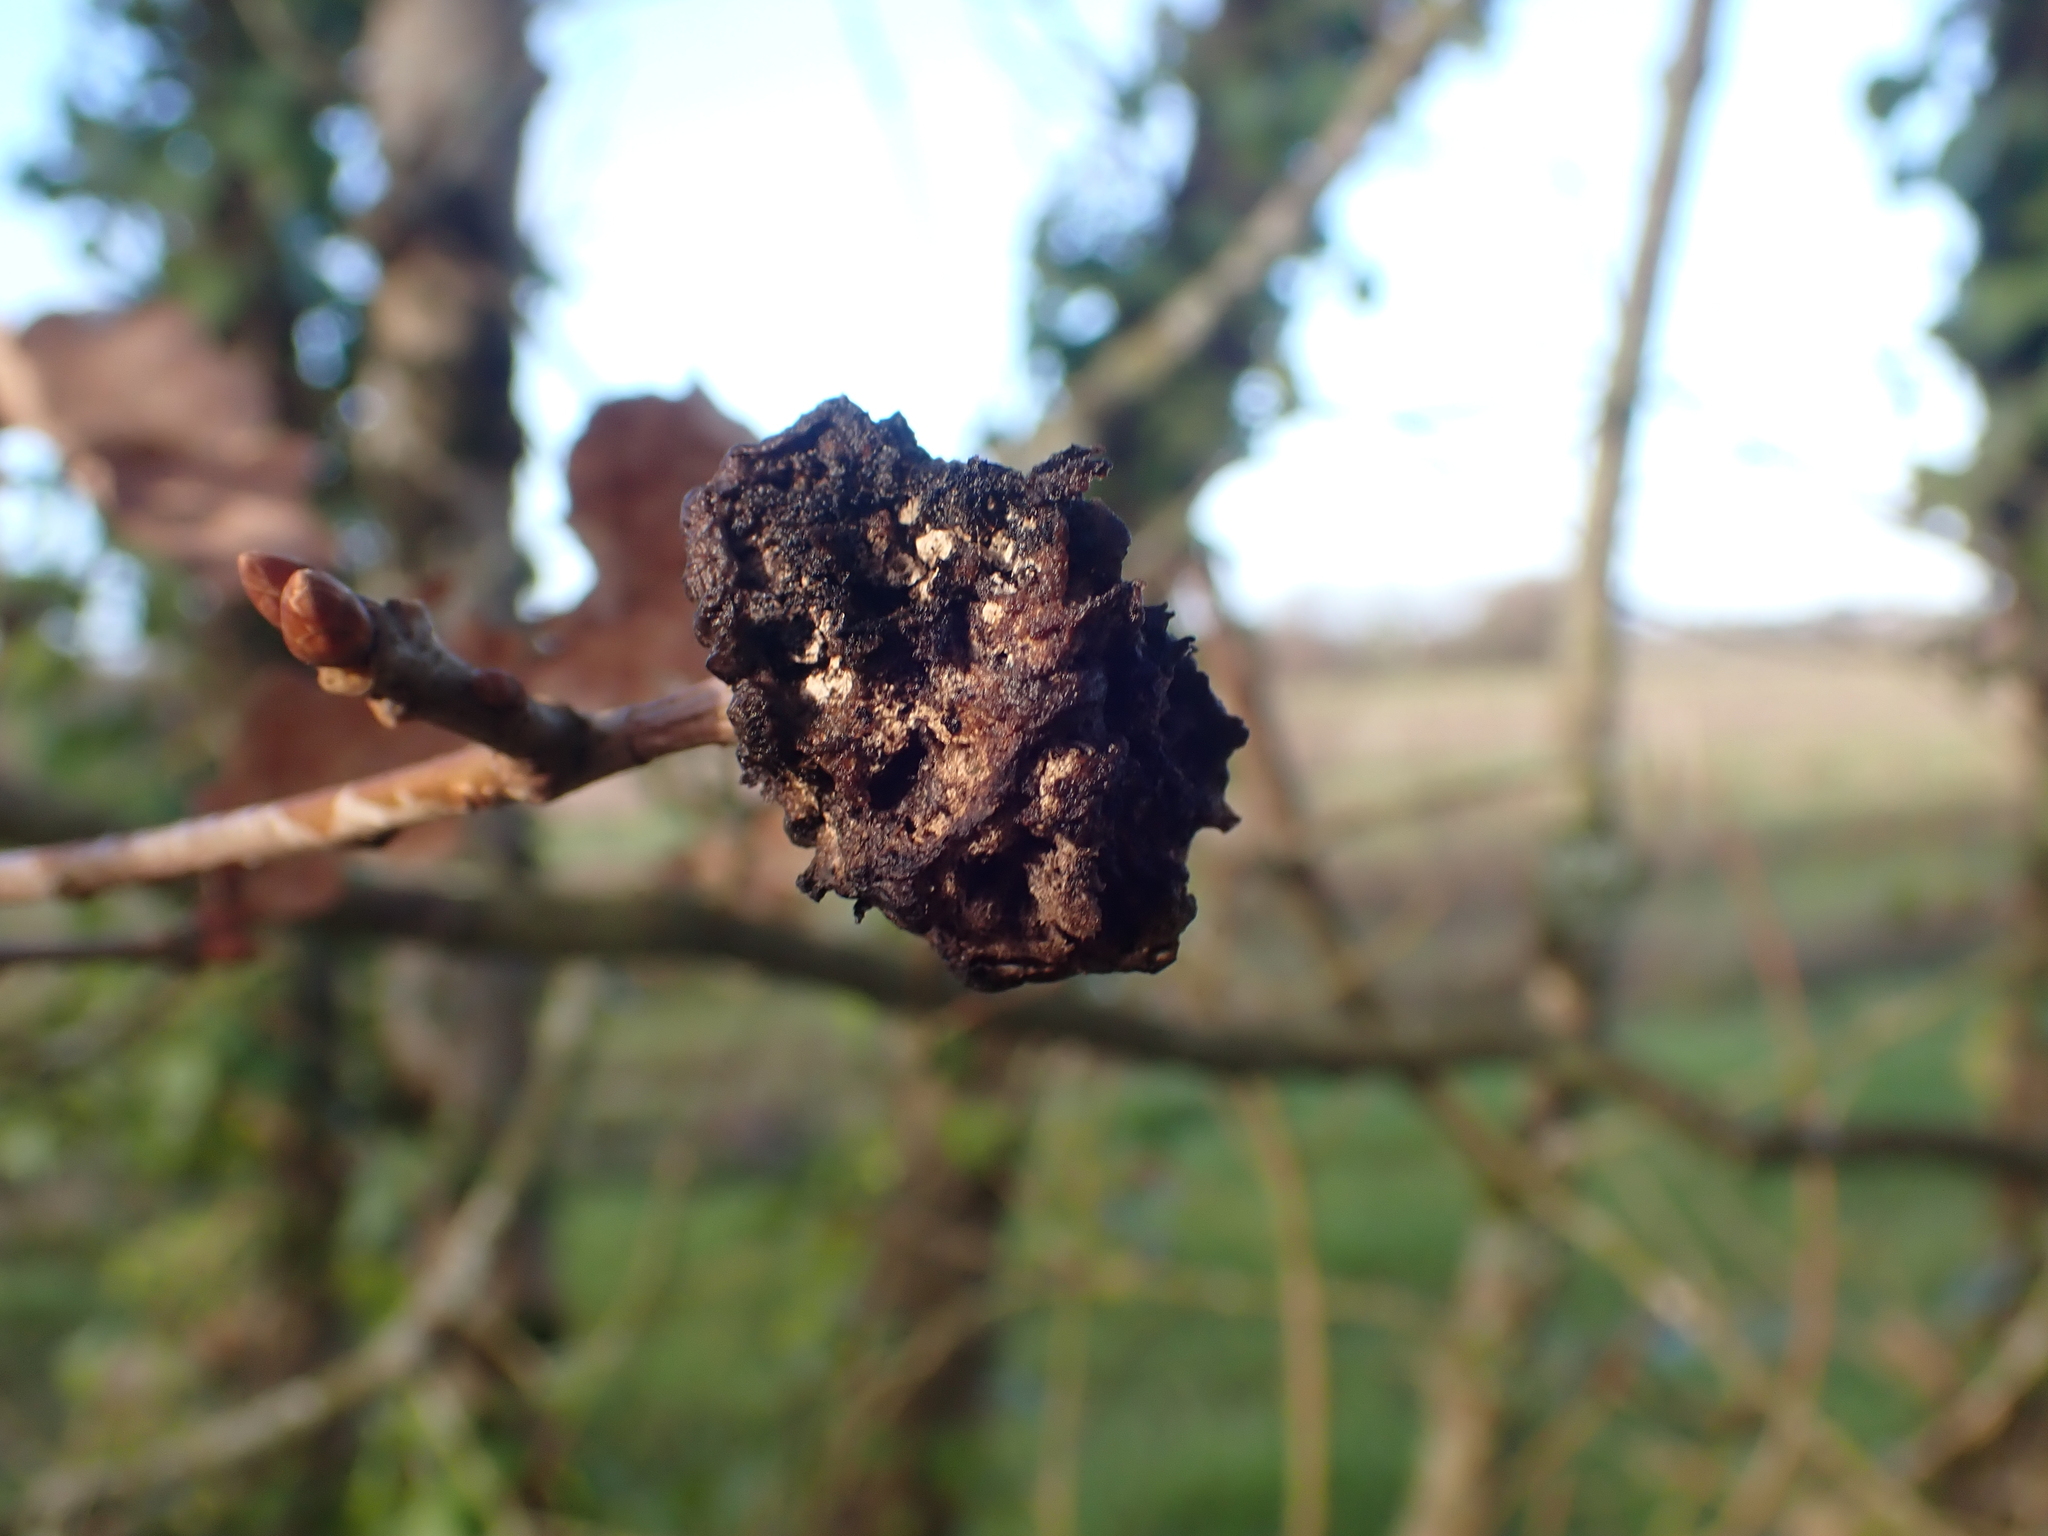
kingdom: Animalia
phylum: Arthropoda
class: Insecta
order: Hymenoptera
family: Cynipidae
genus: Biorhiza
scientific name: Biorhiza pallida
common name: Oak apple
